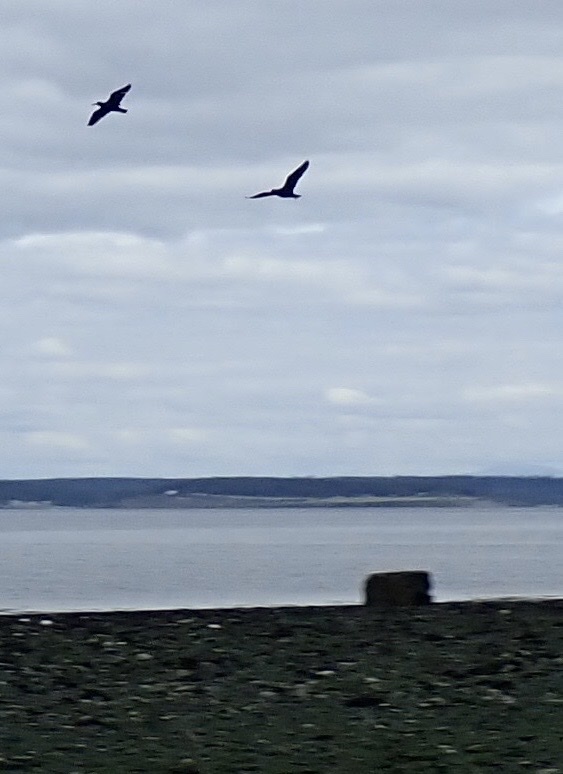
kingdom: Animalia
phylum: Chordata
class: Aves
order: Charadriiformes
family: Haematopodidae
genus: Haematopus
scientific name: Haematopus bachmani
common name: Black oystercatcher
